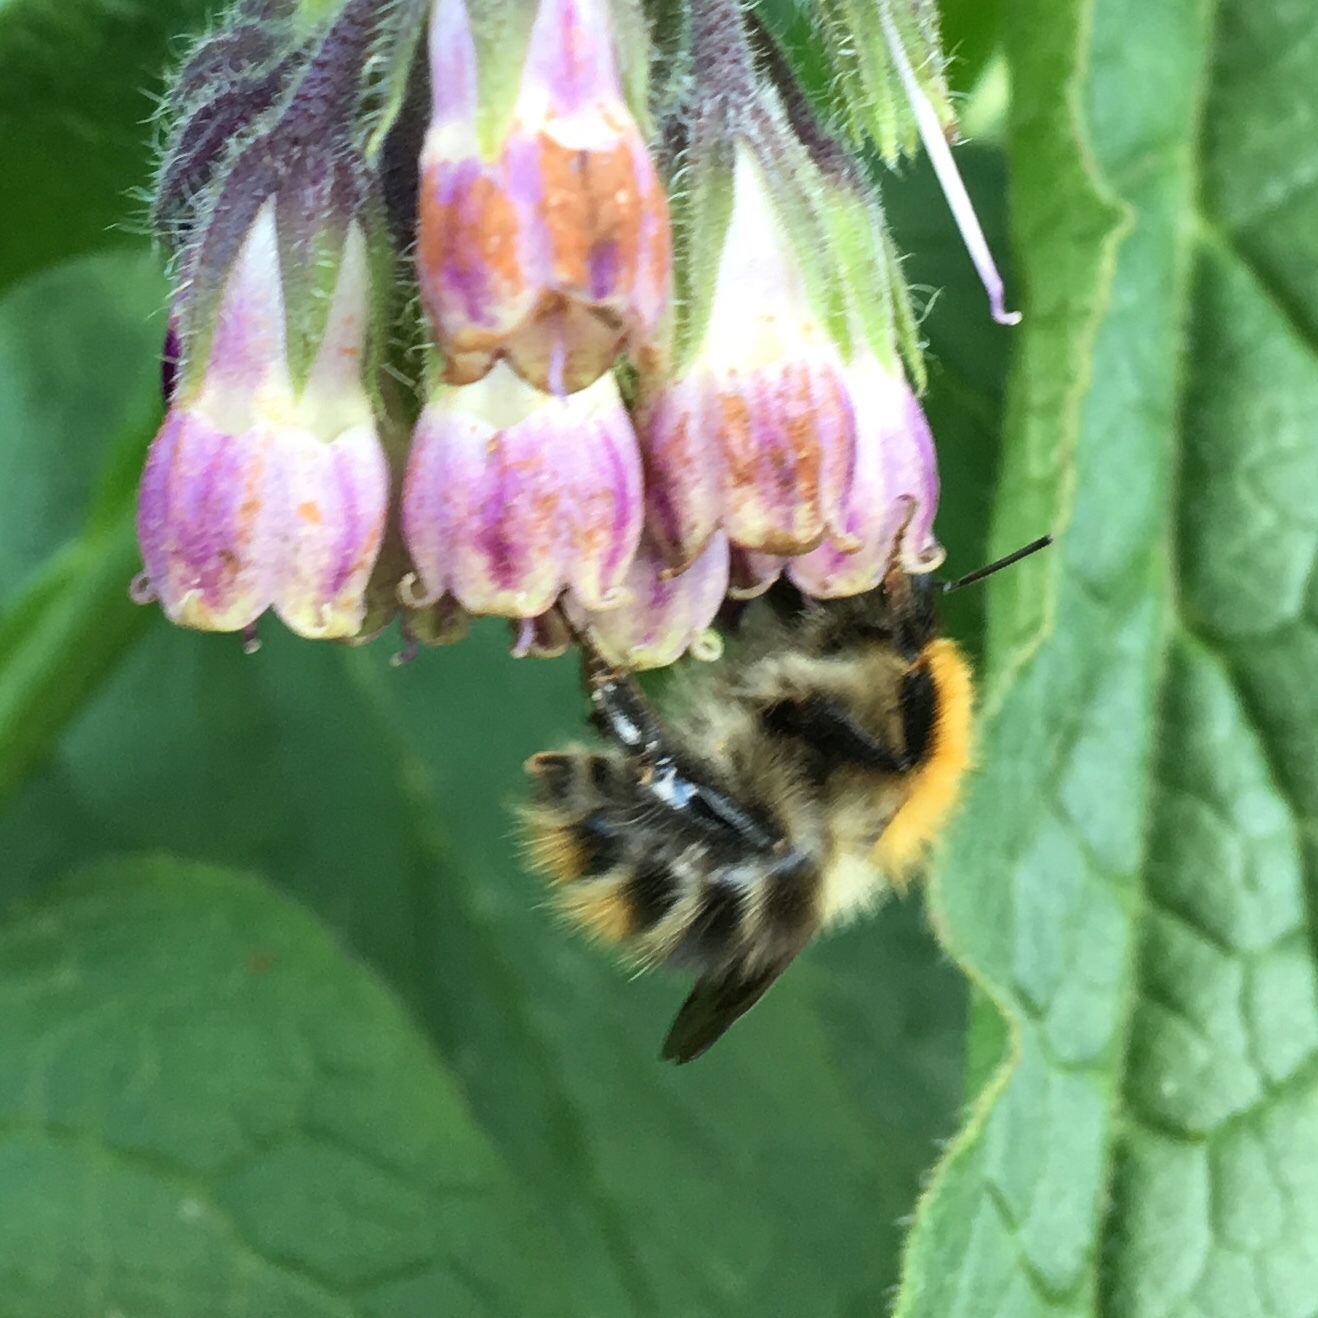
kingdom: Animalia
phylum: Arthropoda
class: Insecta
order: Hymenoptera
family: Apidae
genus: Bombus
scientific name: Bombus pascuorum
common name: Common carder bee
